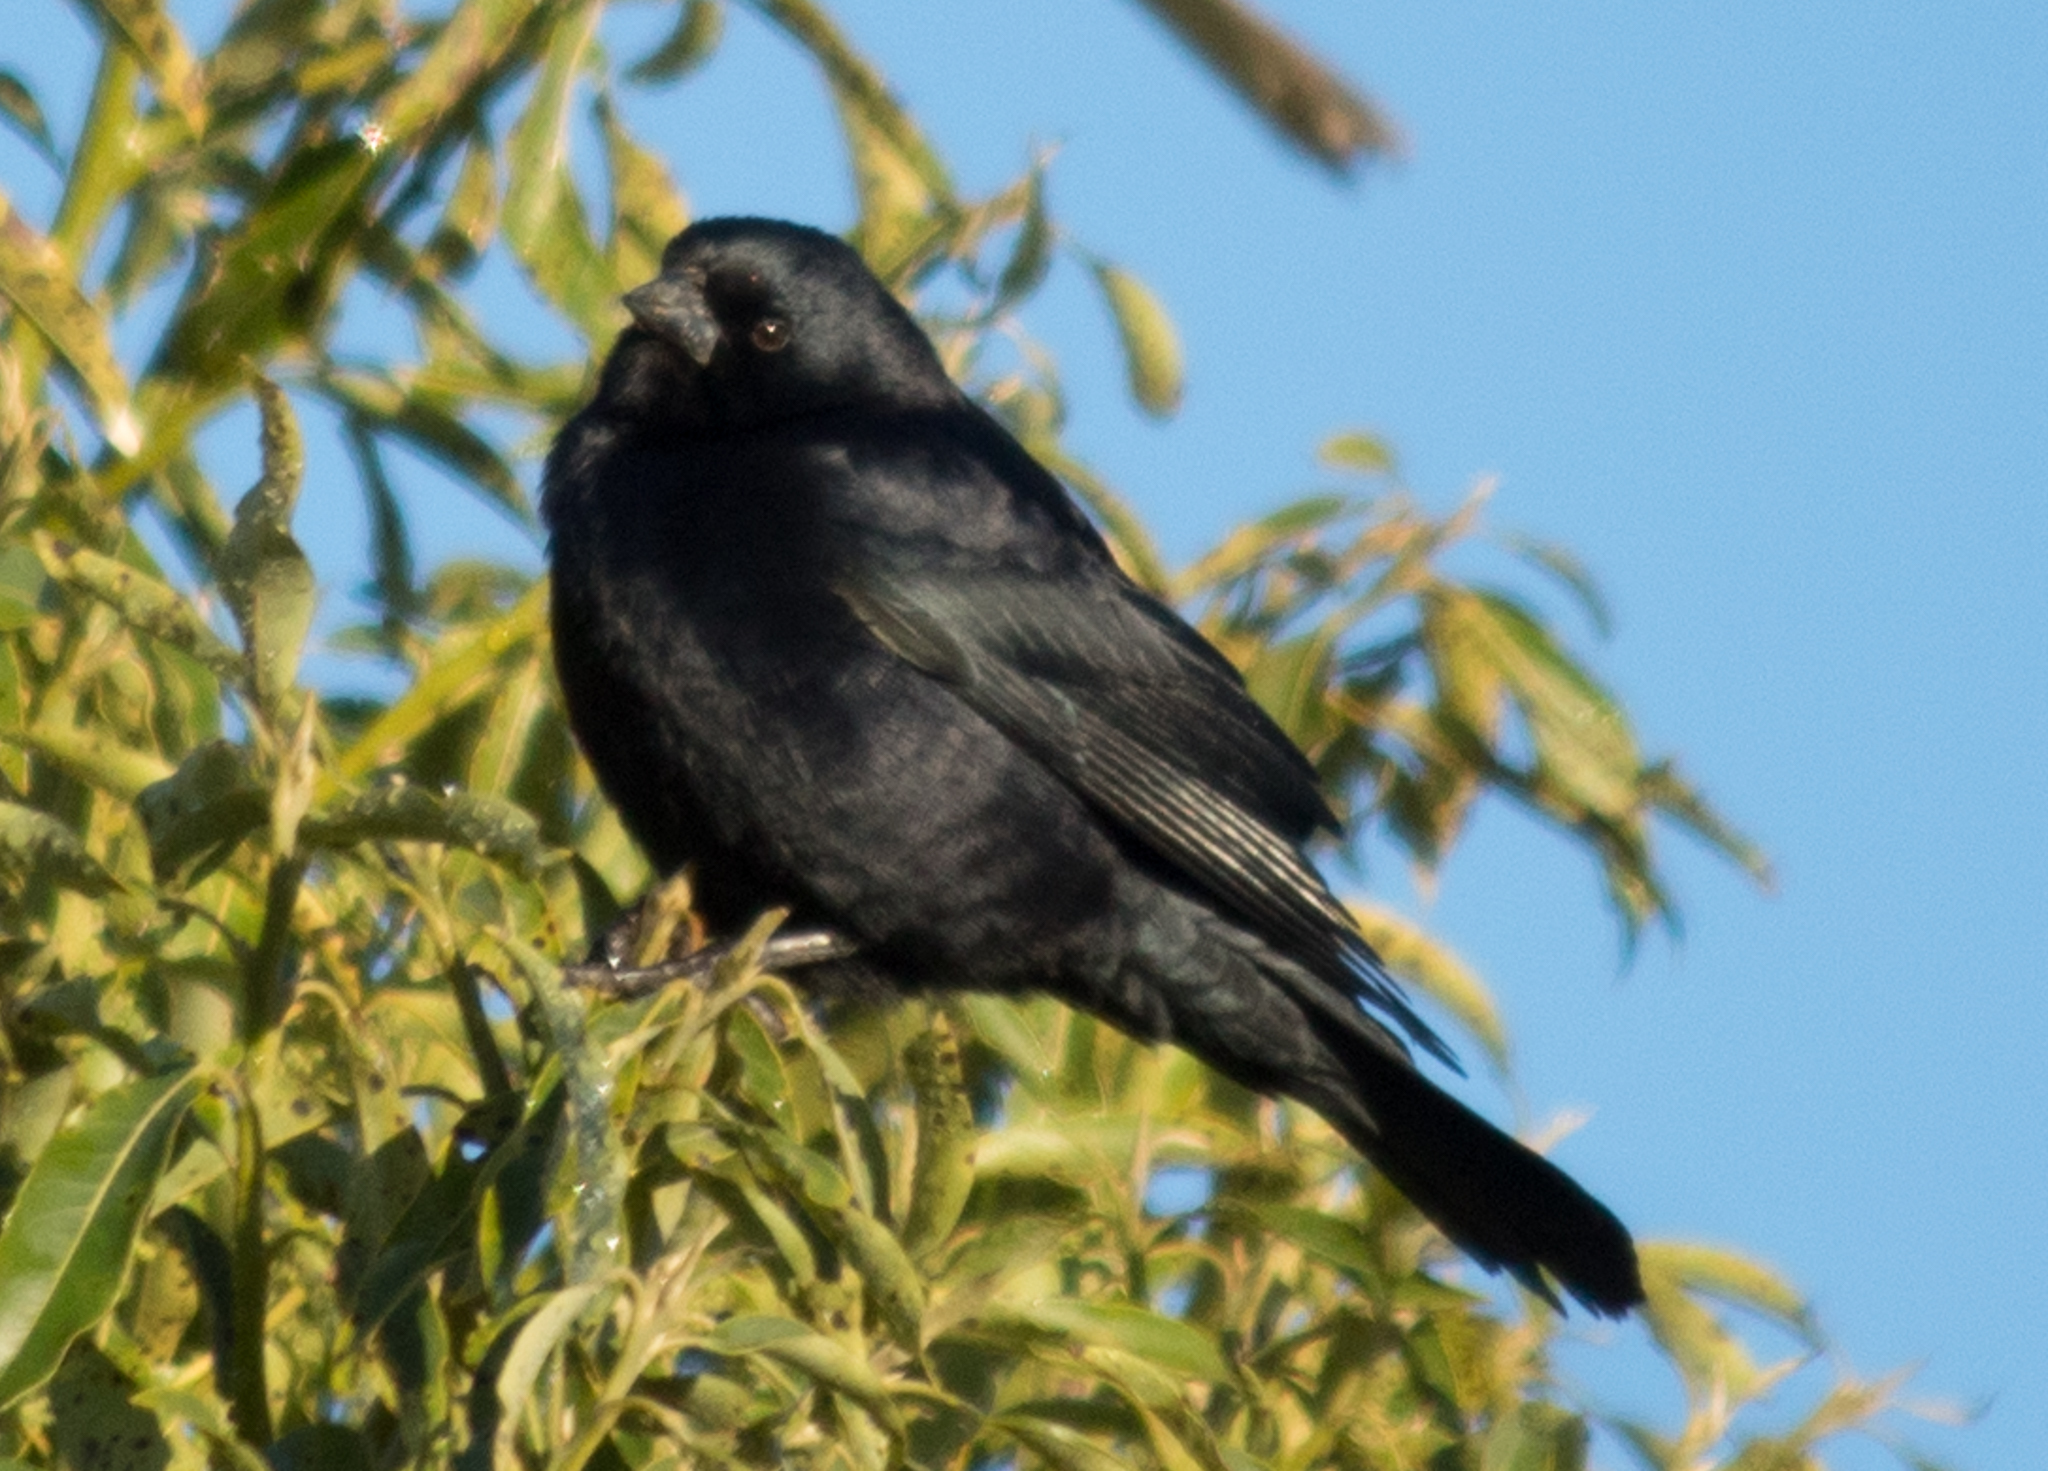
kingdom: Animalia
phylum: Chordata
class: Aves
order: Passeriformes
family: Icteridae
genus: Molothrus
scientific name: Molothrus rufoaxillaris
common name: Screaming cowbird
